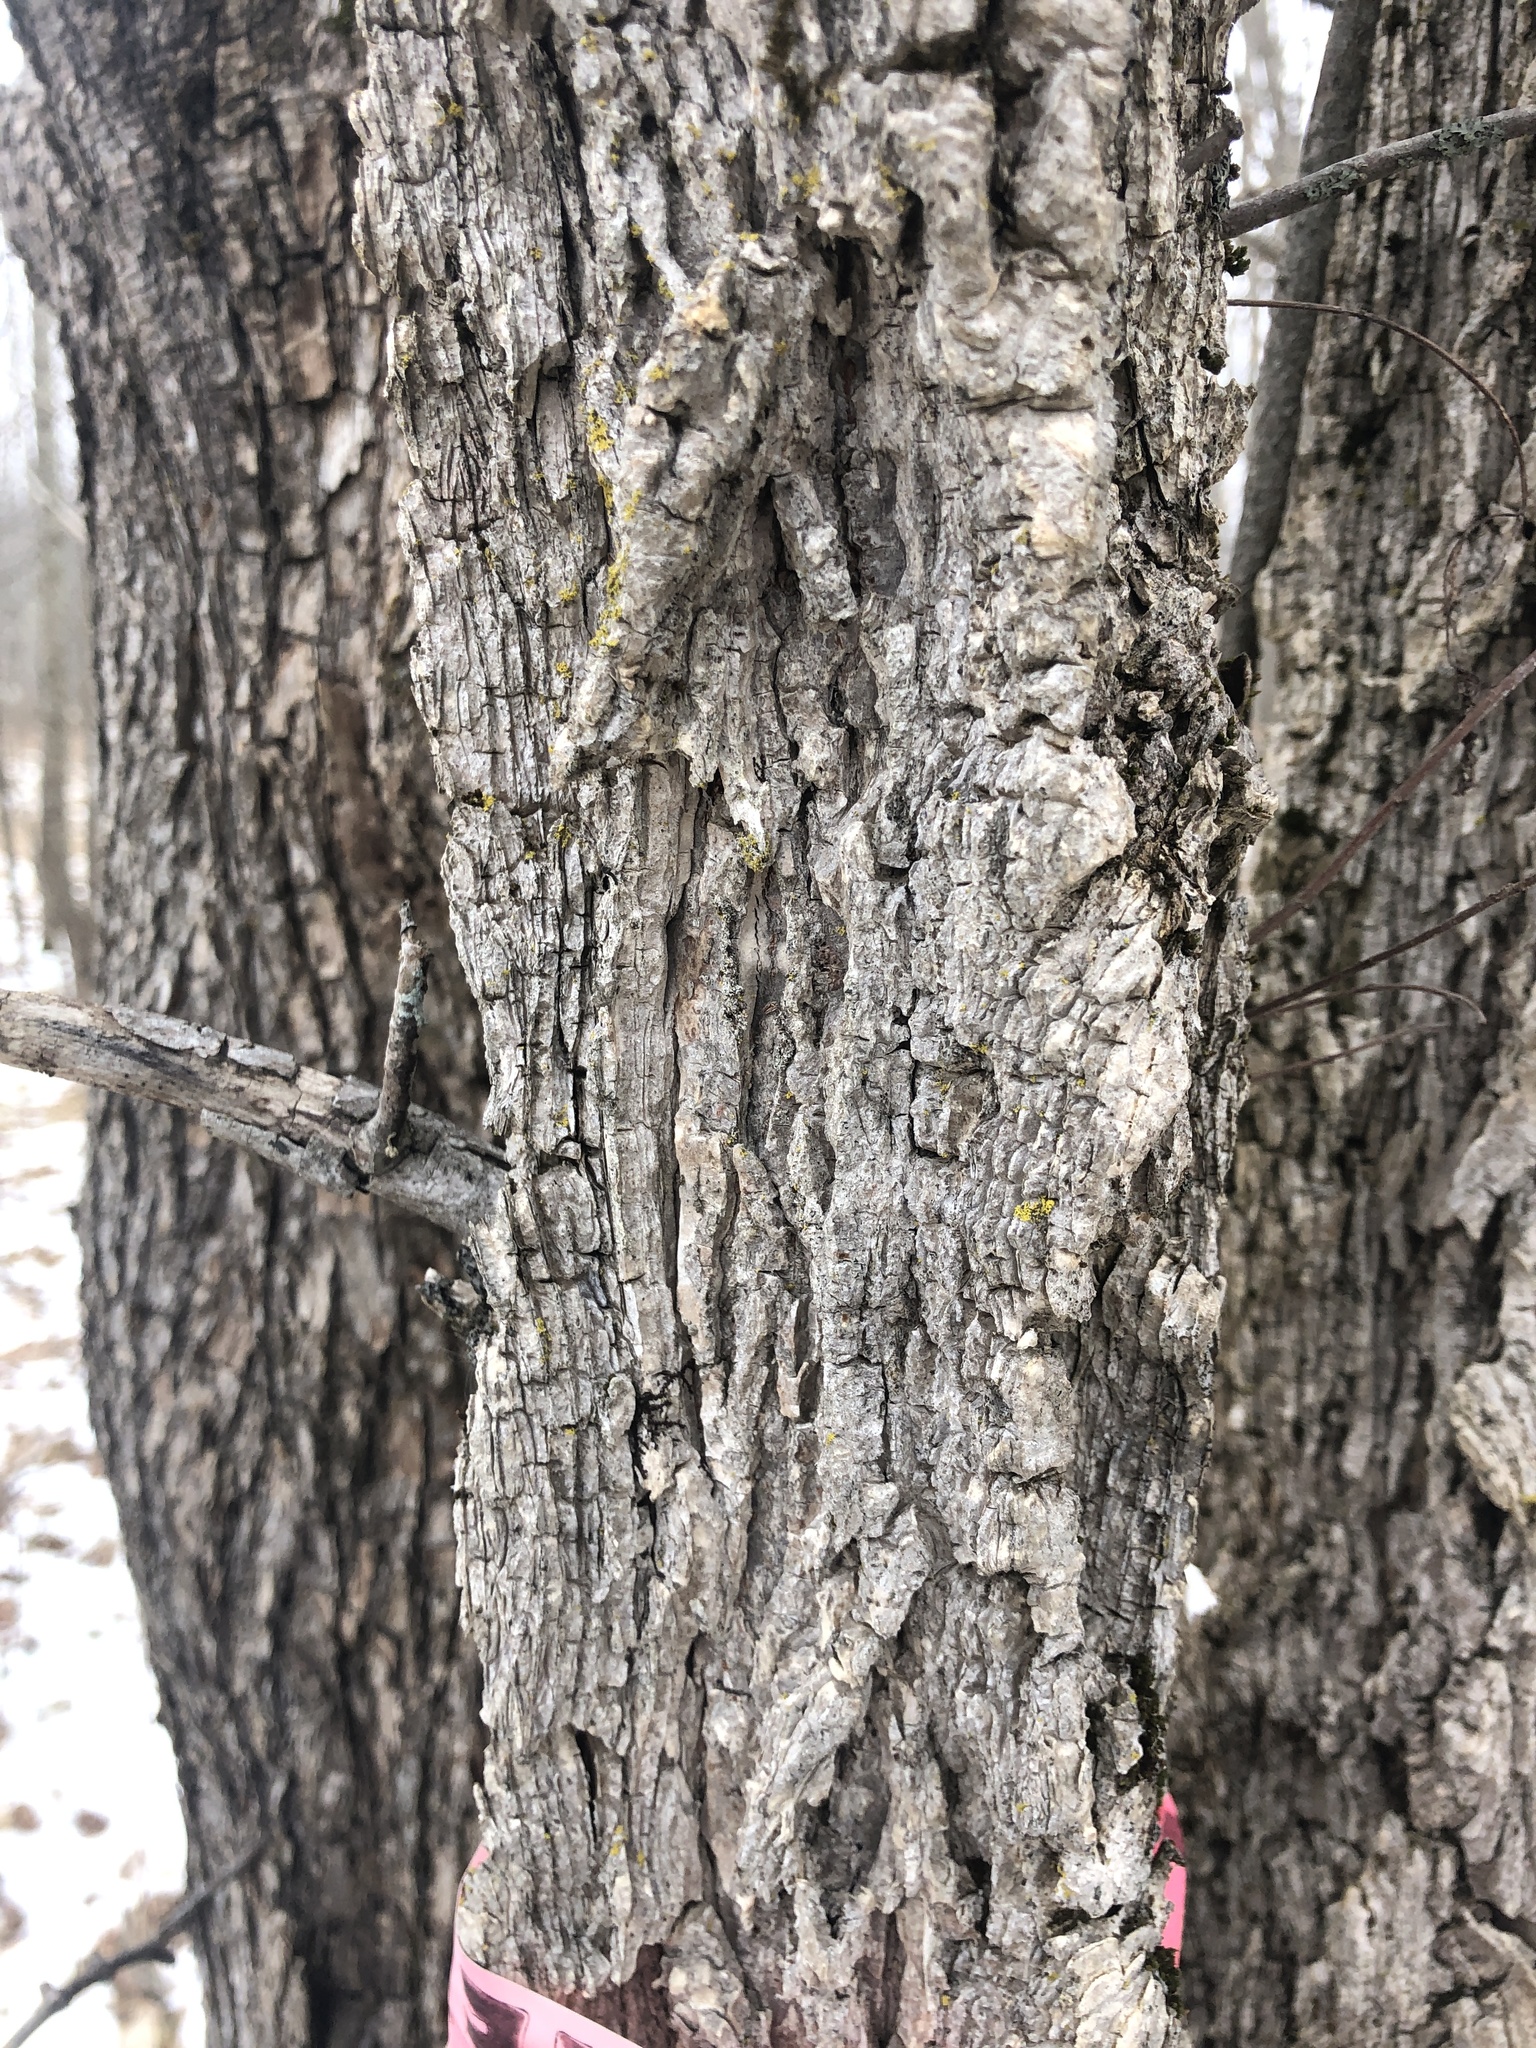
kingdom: Plantae
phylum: Tracheophyta
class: Magnoliopsida
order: Rosales
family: Ulmaceae
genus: Ulmus
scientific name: Ulmus americana
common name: American elm
